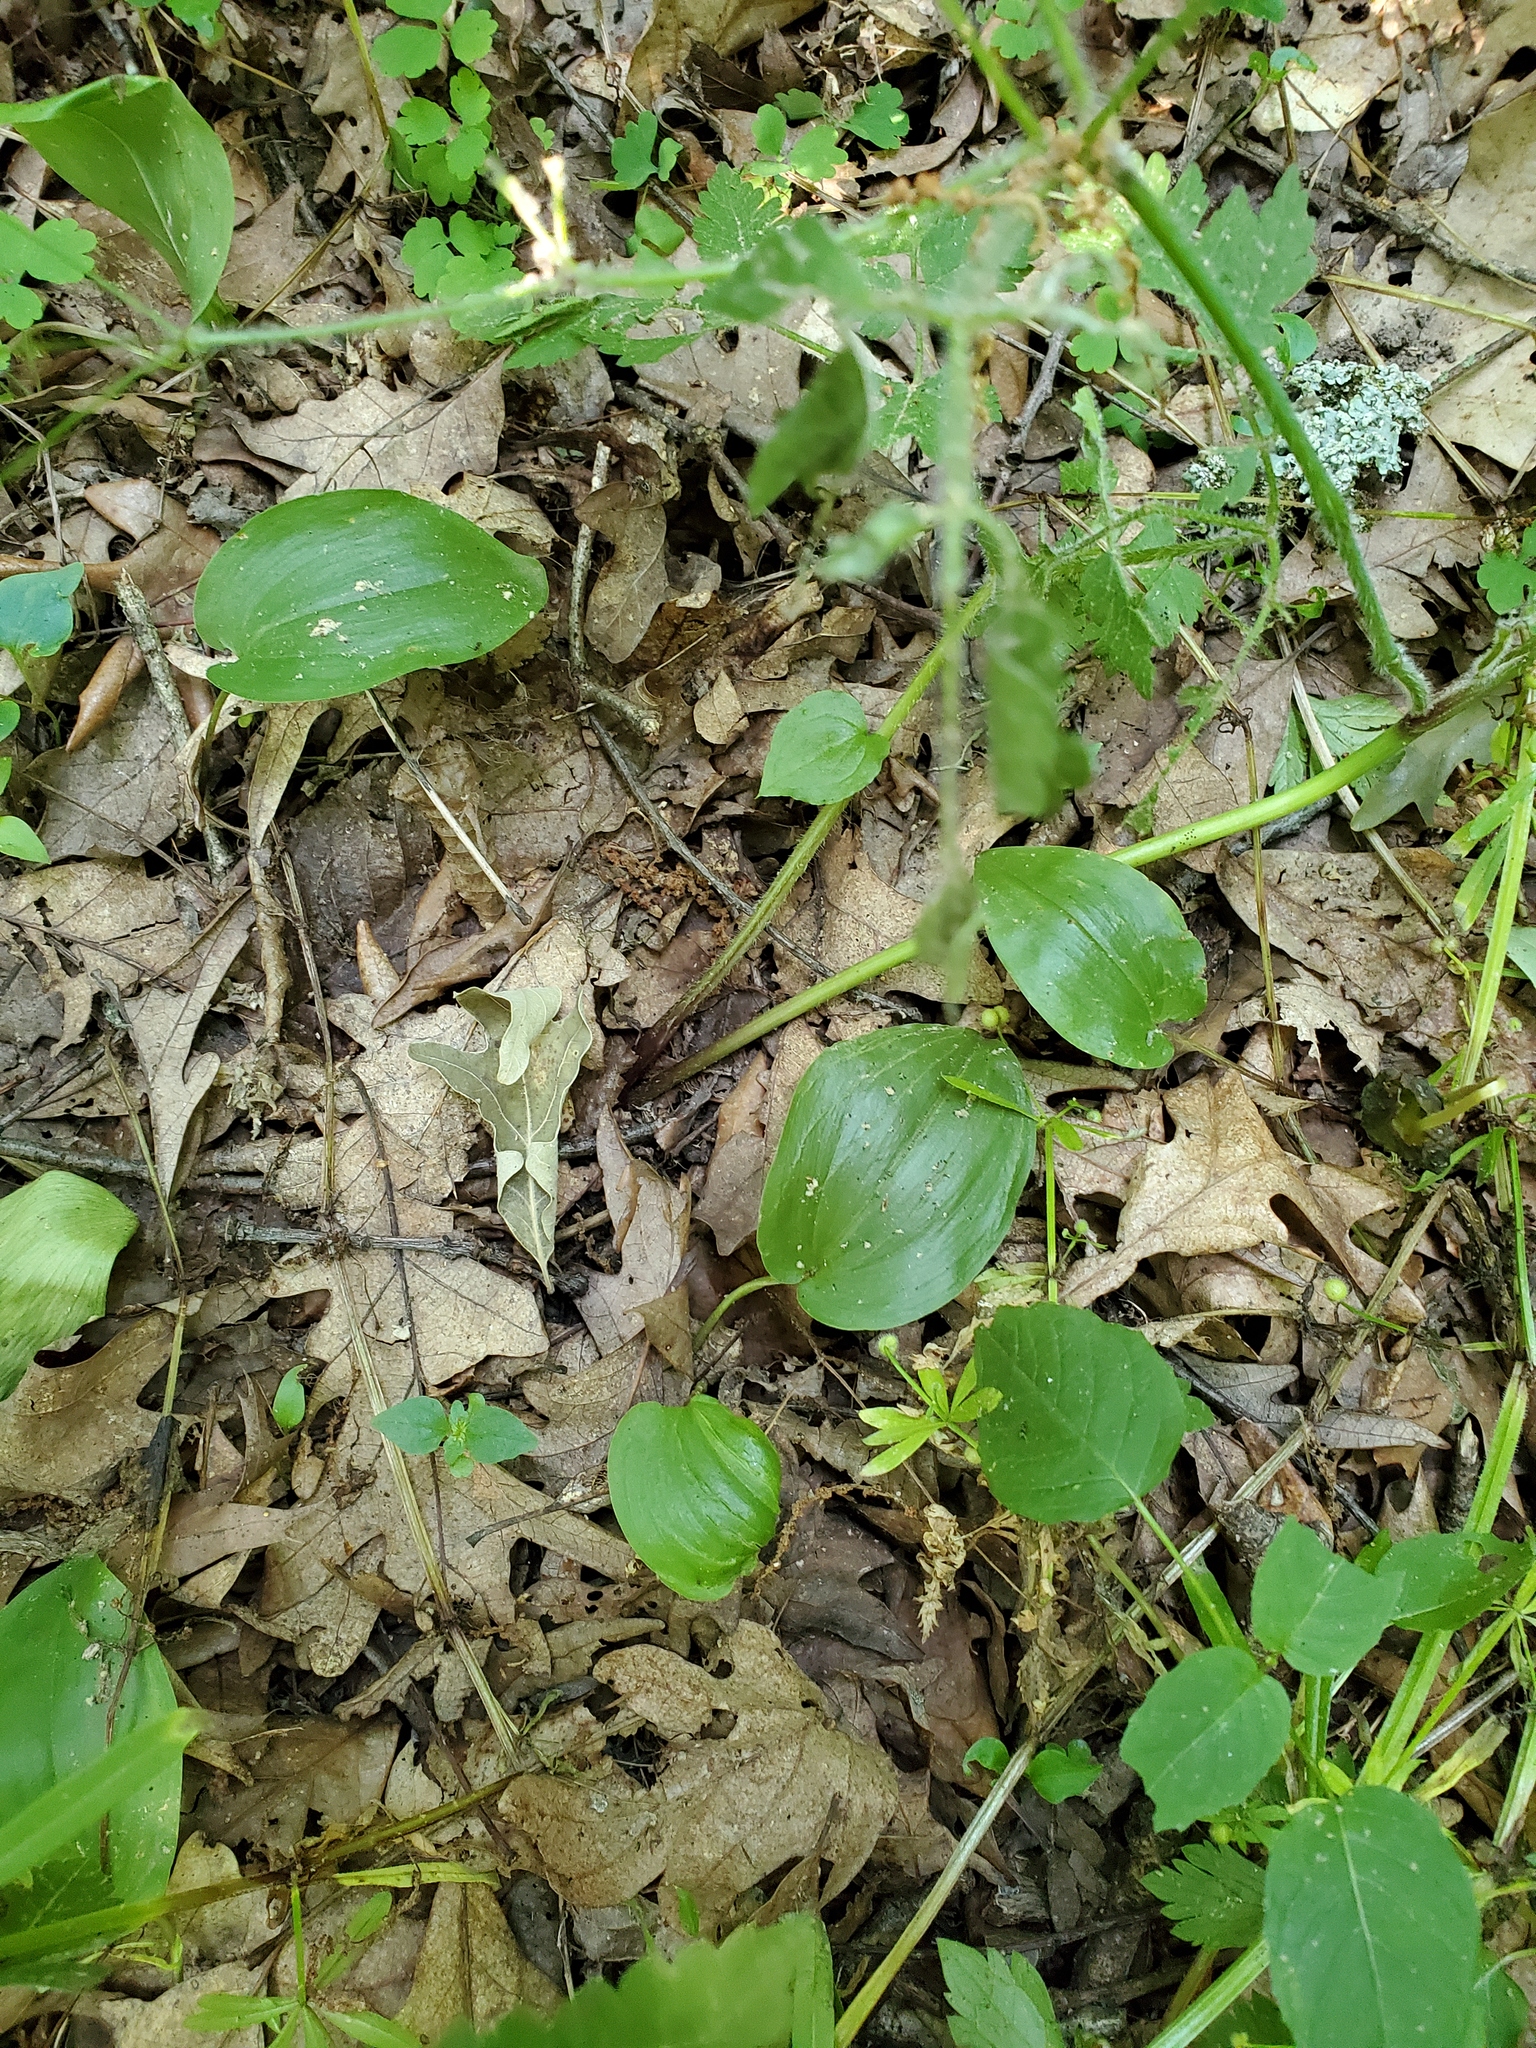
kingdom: Plantae
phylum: Tracheophyta
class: Liliopsida
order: Asparagales
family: Asparagaceae
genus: Maianthemum
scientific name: Maianthemum canadense
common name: False lily-of-the-valley
